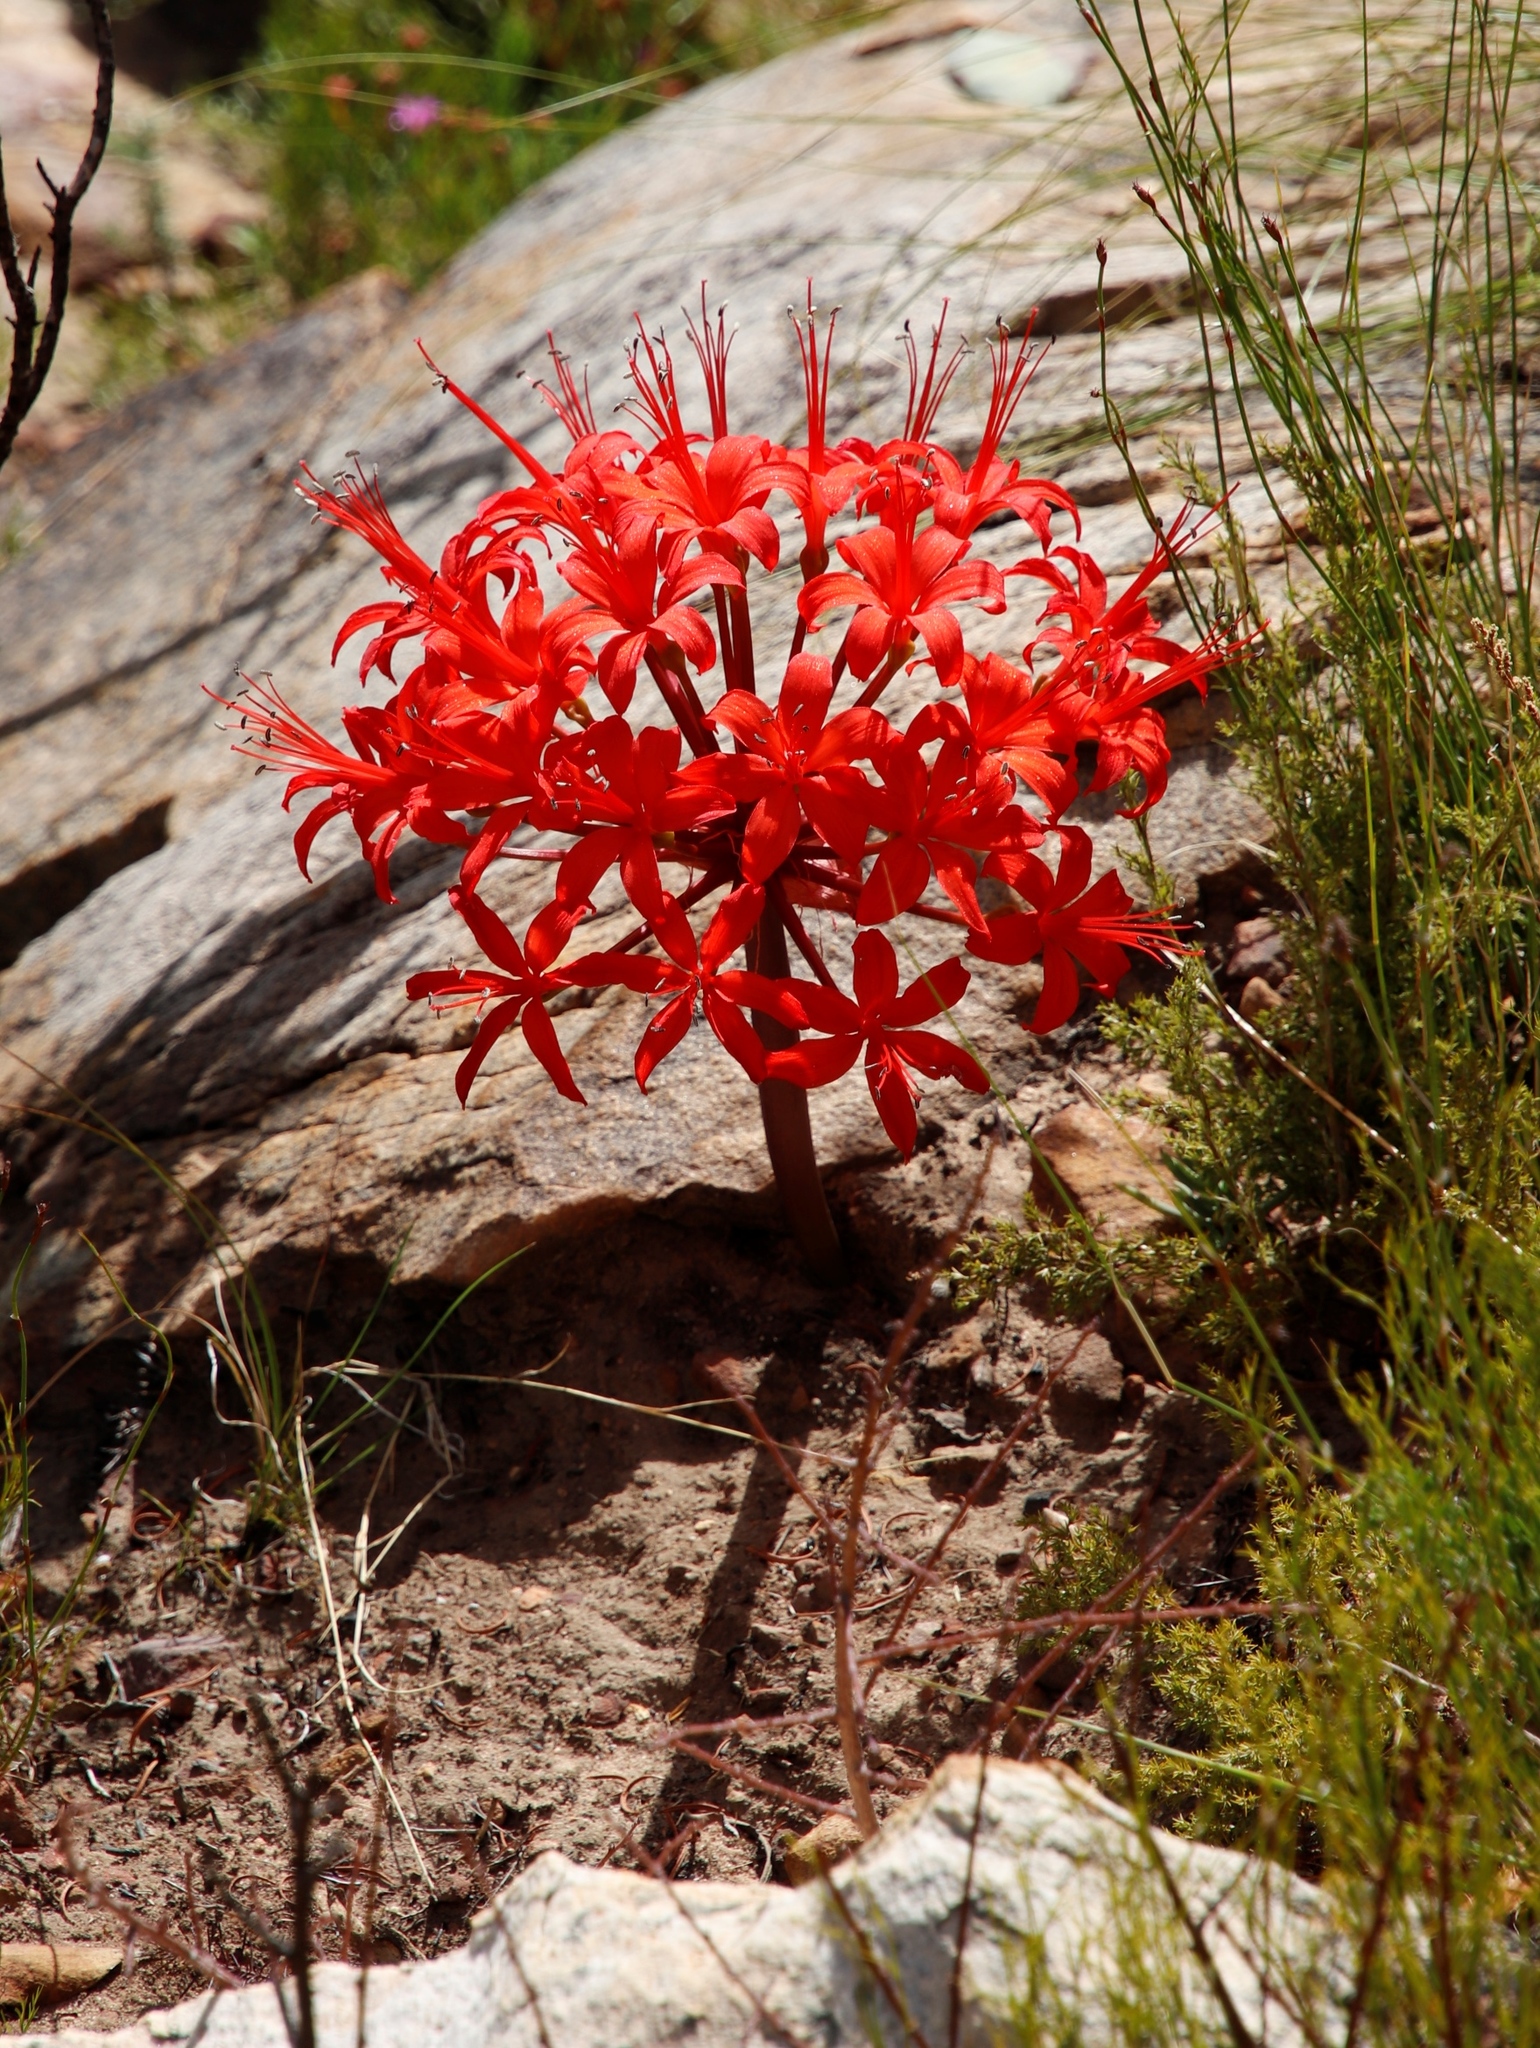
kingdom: Plantae
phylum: Tracheophyta
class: Liliopsida
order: Asparagales
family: Amaryllidaceae
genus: Brunsvigia
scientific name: Brunsvigia marginata
